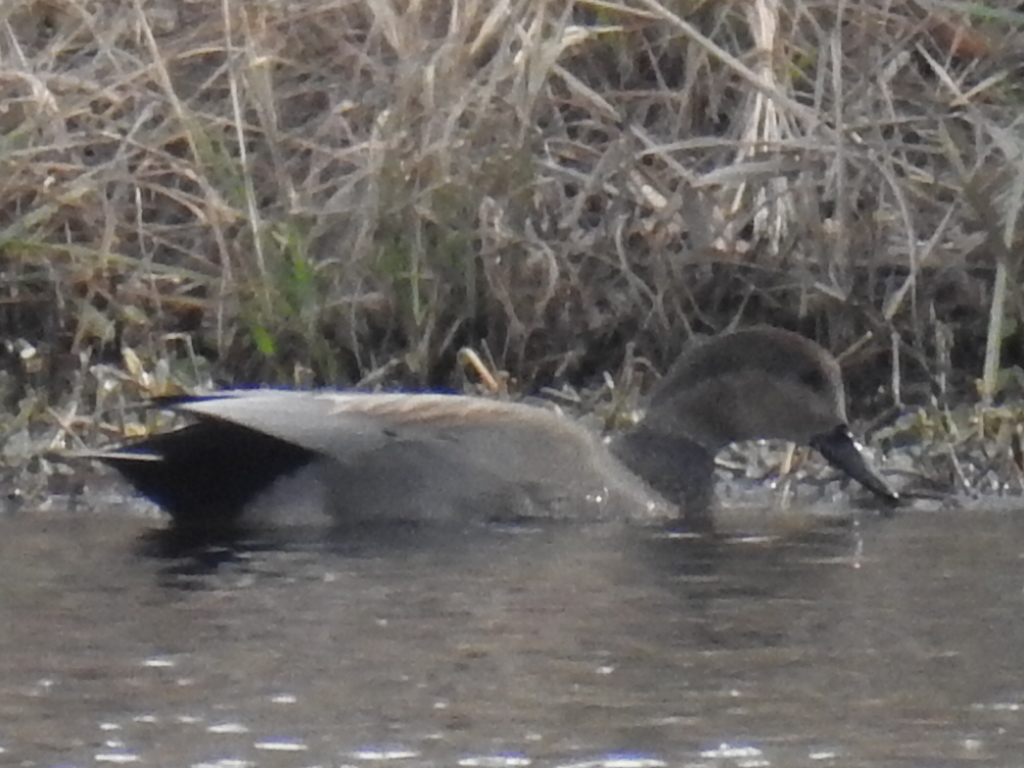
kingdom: Animalia
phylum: Chordata
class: Aves
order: Anseriformes
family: Anatidae
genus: Mareca
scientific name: Mareca strepera
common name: Gadwall
